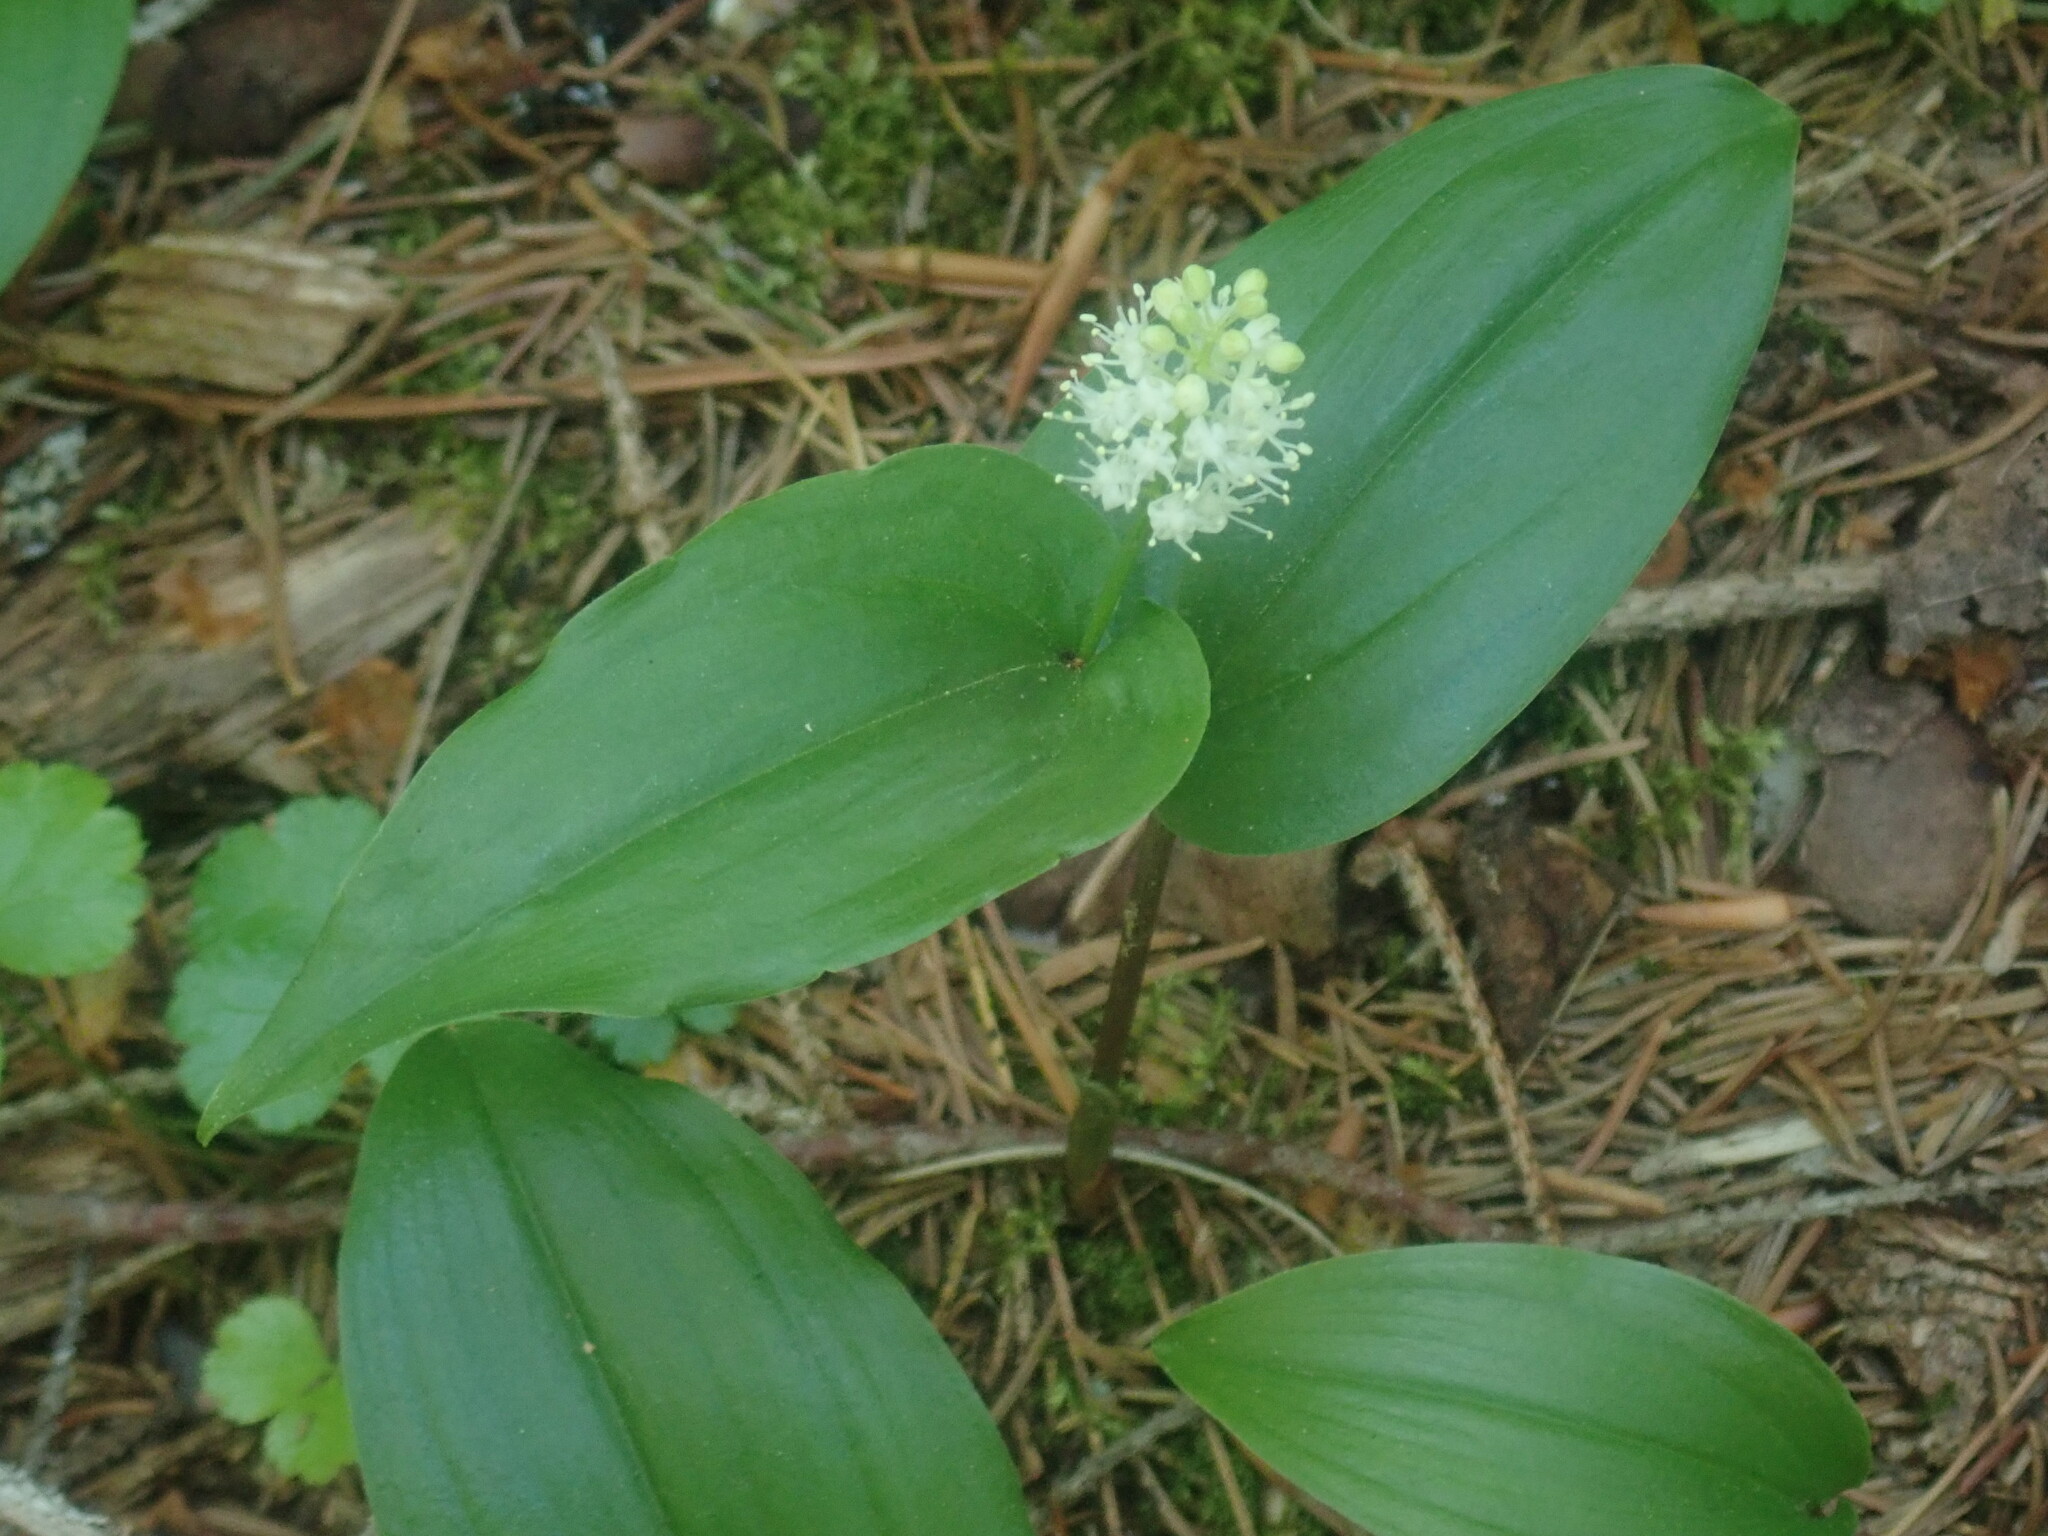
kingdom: Plantae
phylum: Tracheophyta
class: Liliopsida
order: Asparagales
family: Asparagaceae
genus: Maianthemum
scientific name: Maianthemum canadense
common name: False lily-of-the-valley
